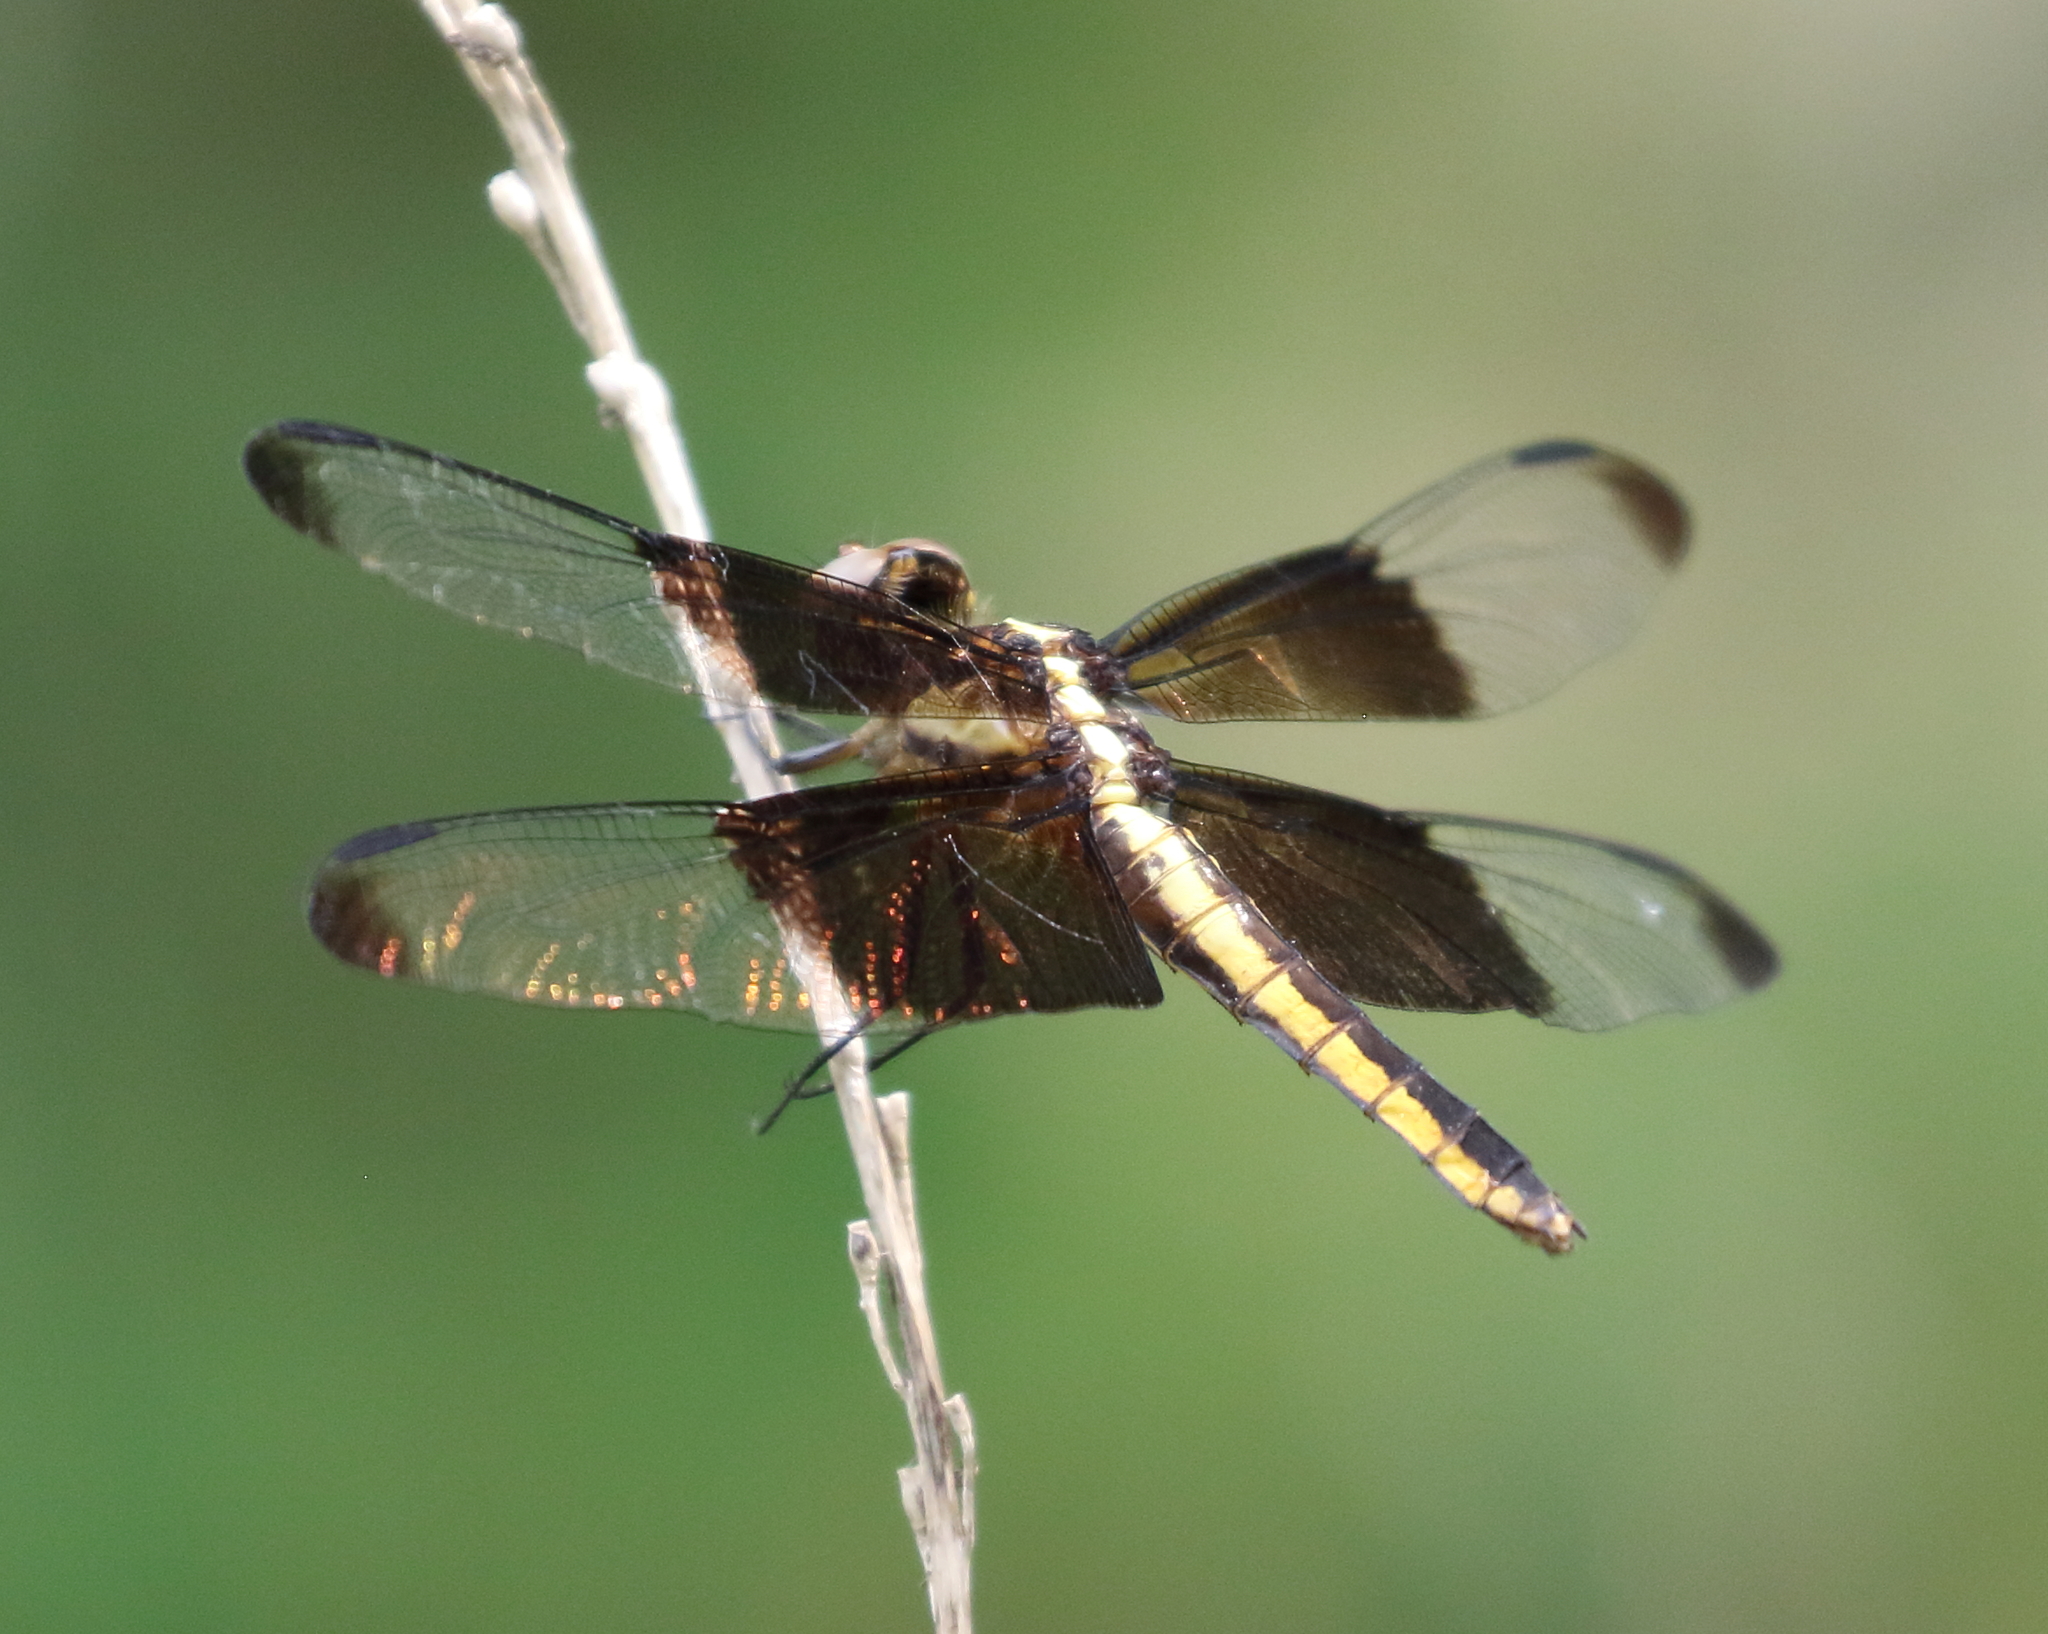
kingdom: Animalia
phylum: Arthropoda
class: Insecta
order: Odonata
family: Libellulidae
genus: Libellula
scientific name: Libellula luctuosa
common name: Widow skimmer
